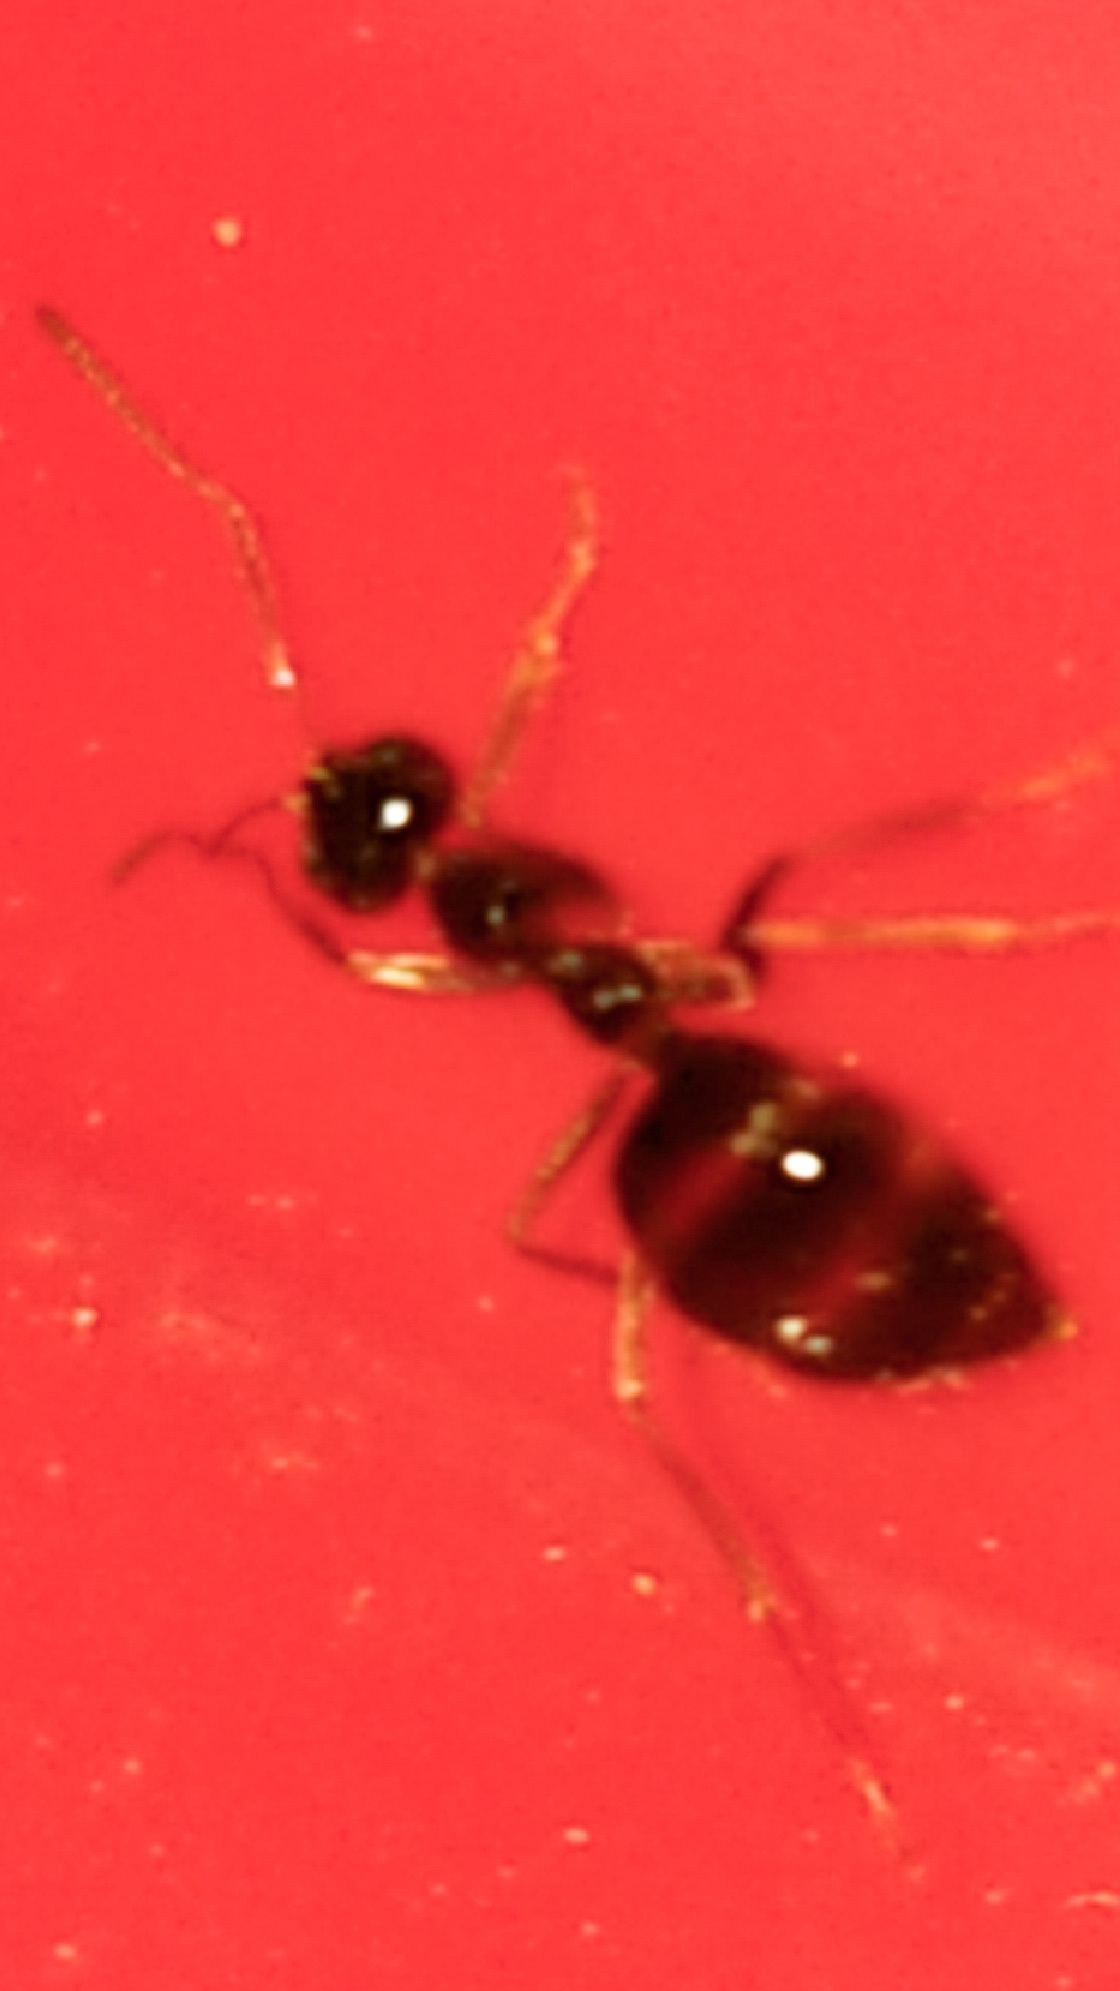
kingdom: Animalia
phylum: Arthropoda
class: Insecta
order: Hymenoptera
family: Formicidae
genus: Prenolepis
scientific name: Prenolepis imparis
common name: Small honey ant
